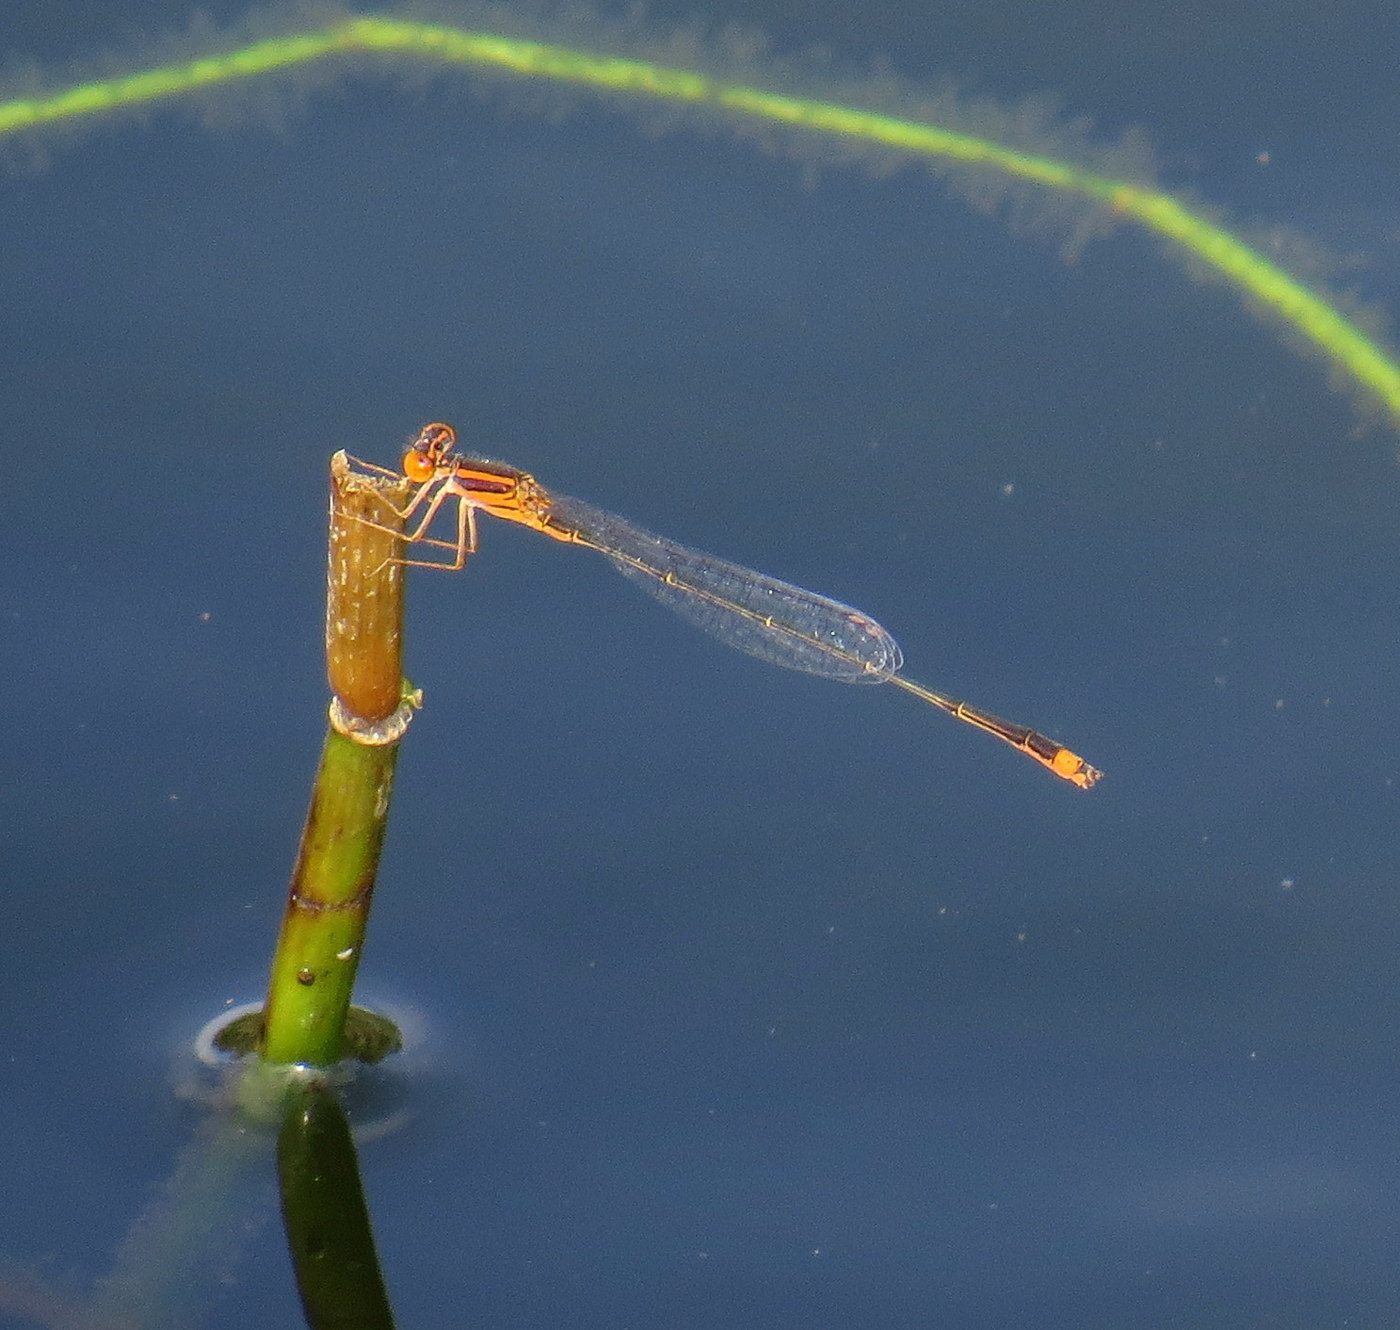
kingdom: Animalia
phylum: Arthropoda
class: Insecta
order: Odonata
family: Coenagrionidae
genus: Enallagma
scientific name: Enallagma pollutum
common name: Florida bluet
